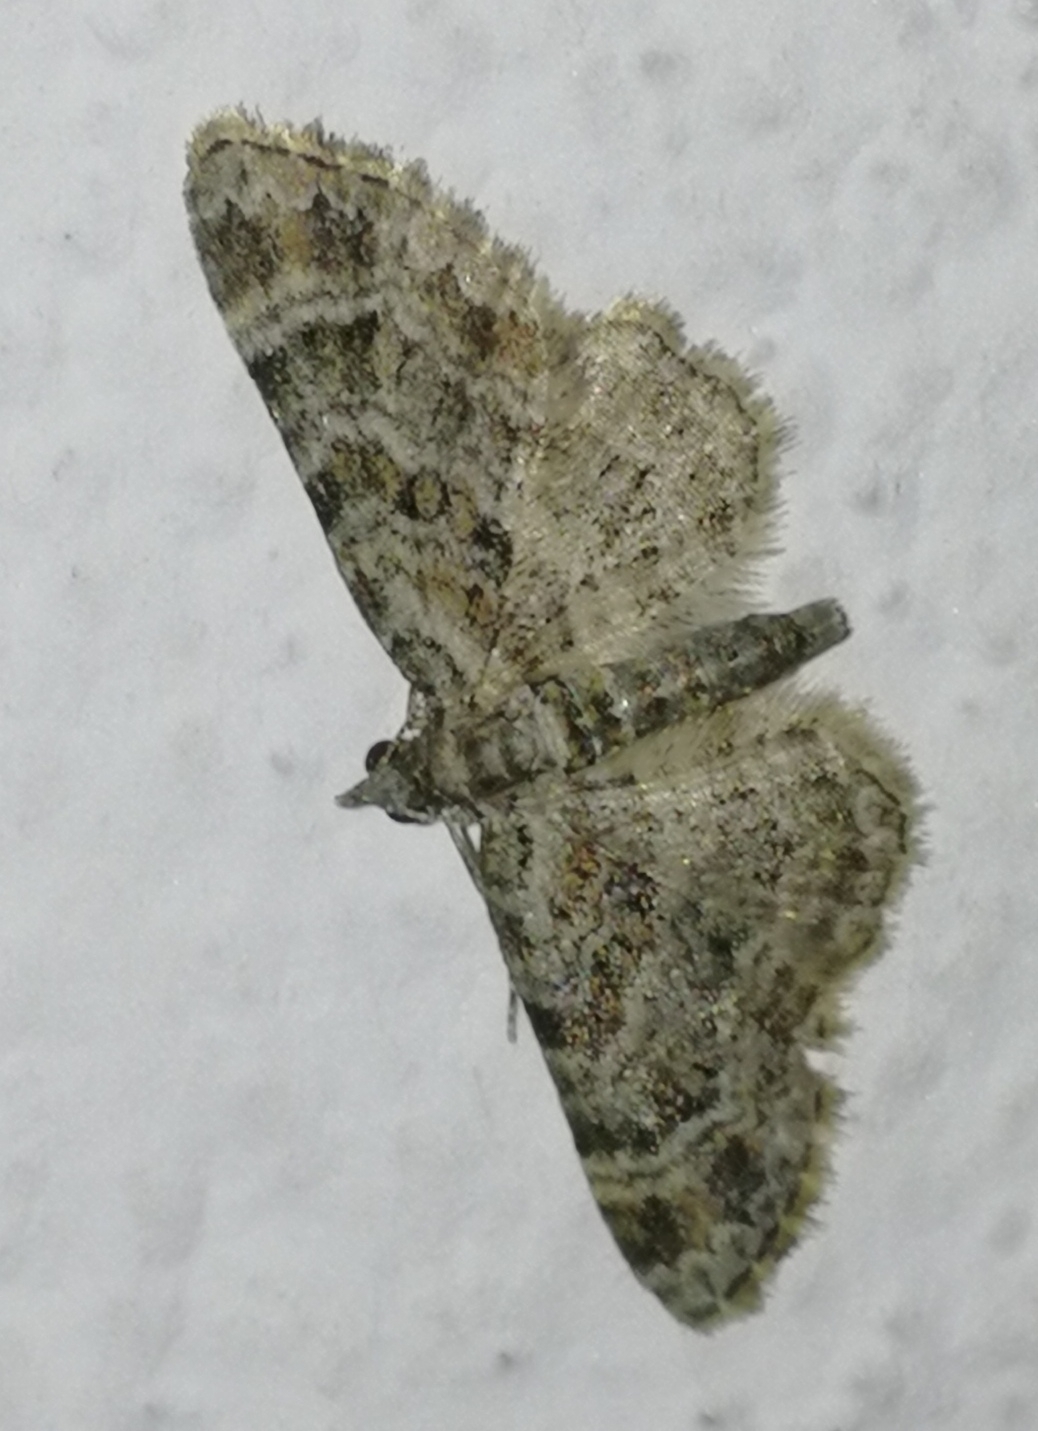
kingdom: Animalia
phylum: Arthropoda
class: Insecta
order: Lepidoptera
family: Geometridae
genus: Gymnoscelis
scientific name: Gymnoscelis rufifasciata
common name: Double-striped pug
